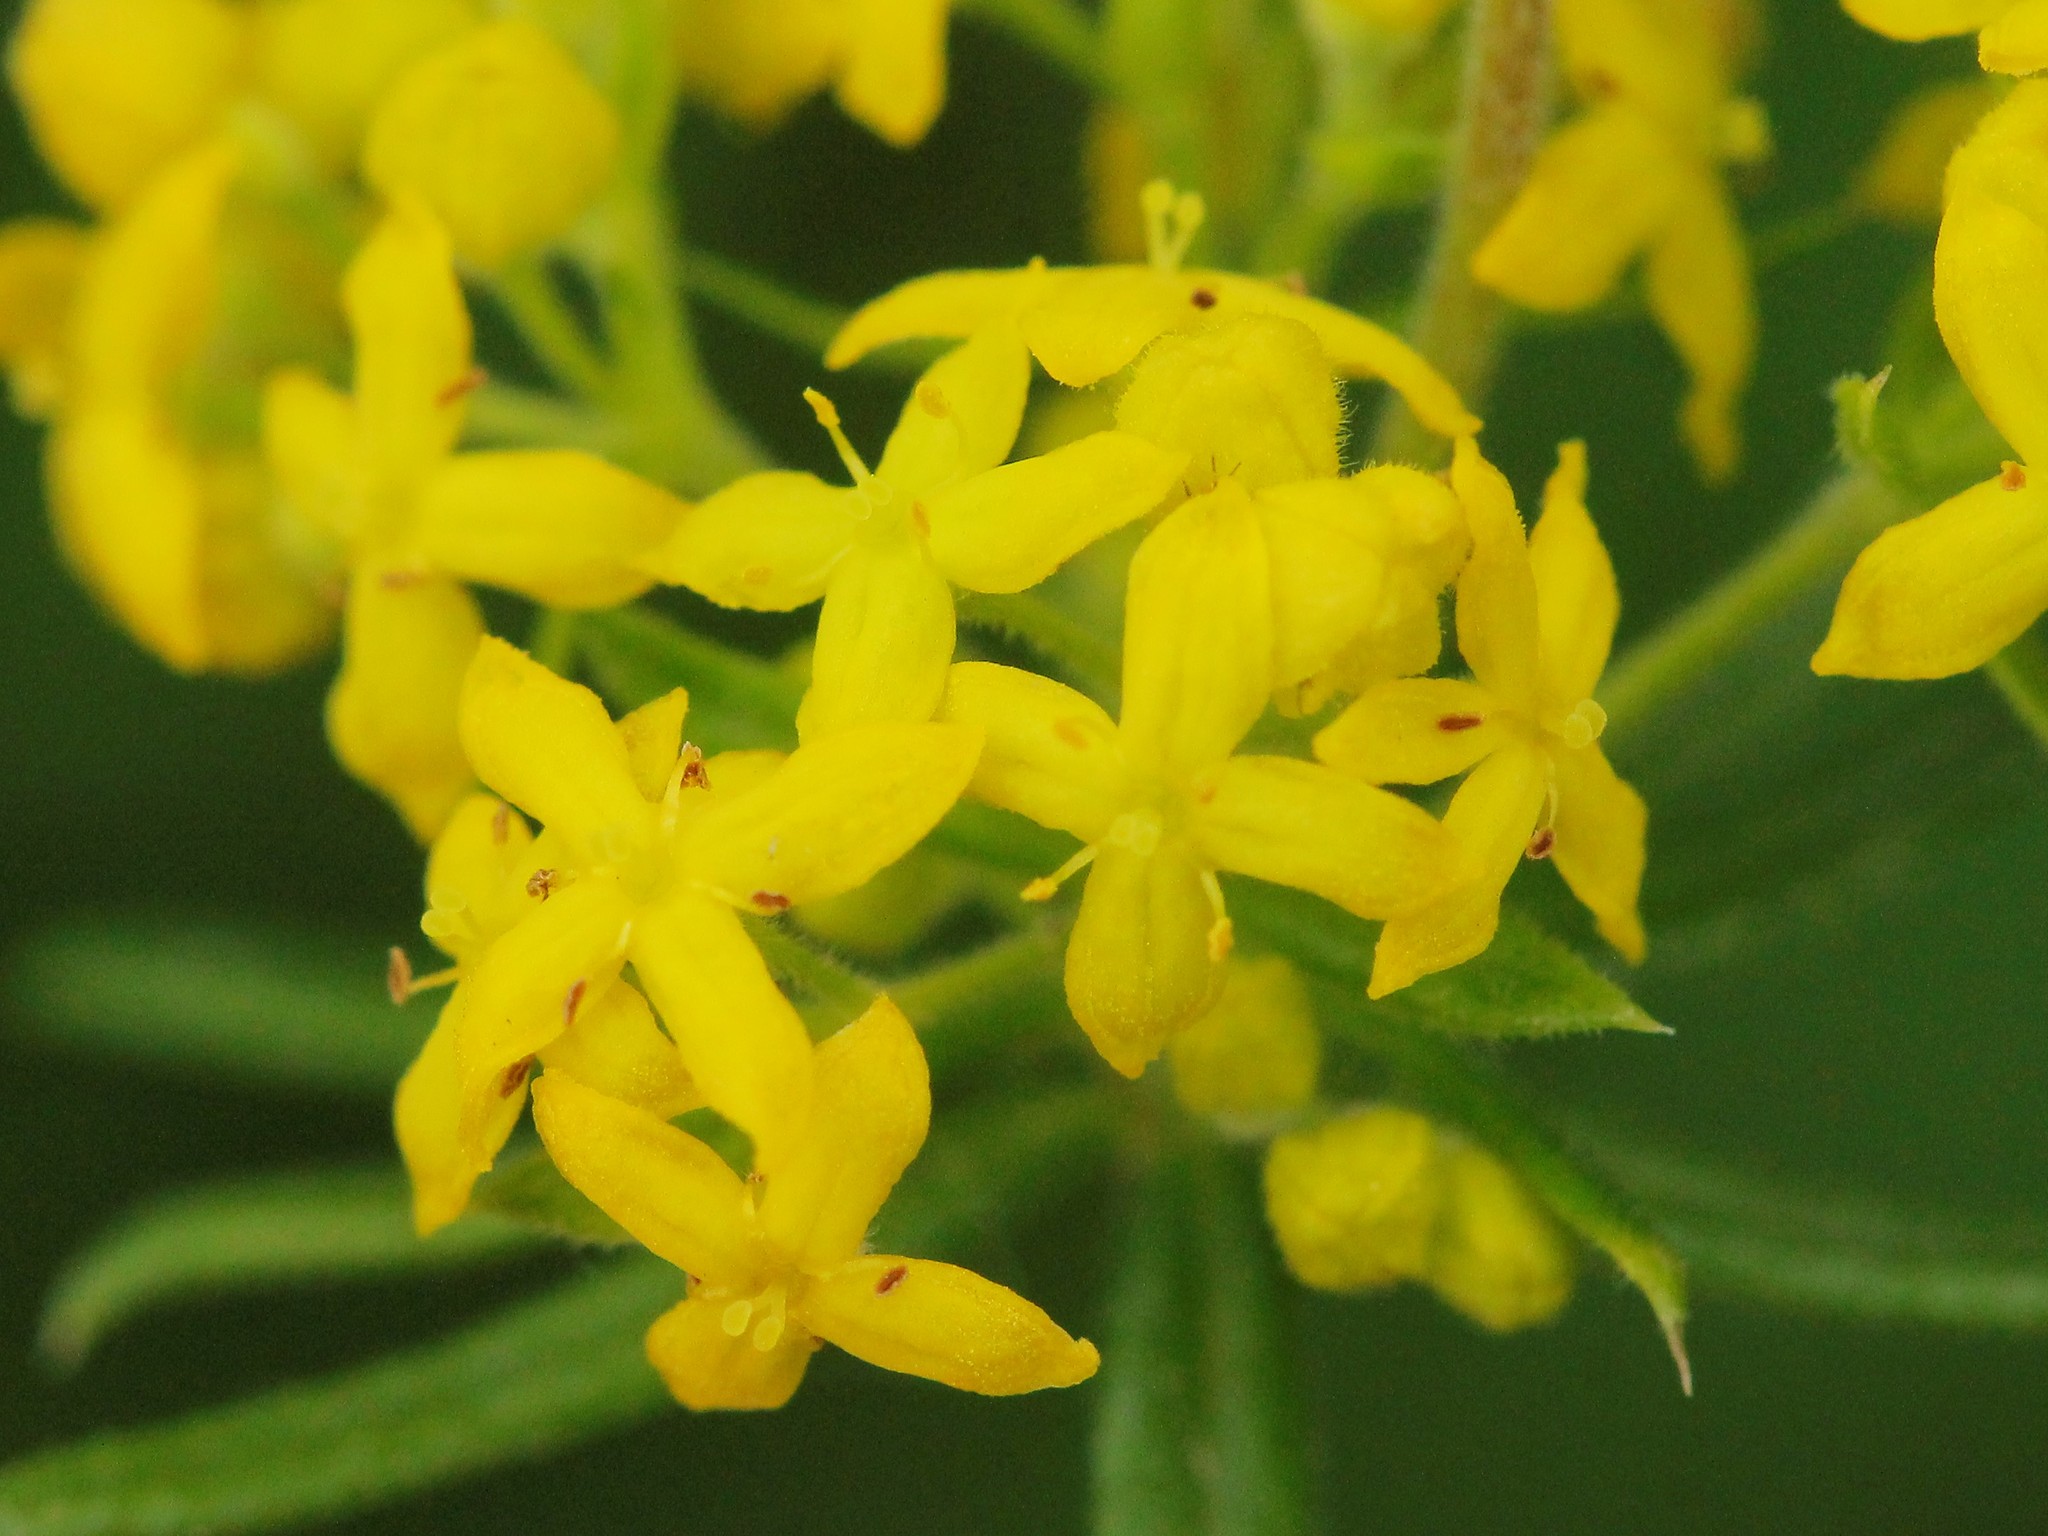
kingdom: Plantae
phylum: Tracheophyta
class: Magnoliopsida
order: Gentianales
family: Rubiaceae
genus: Galium
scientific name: Galium verum
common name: Lady's bedstraw
